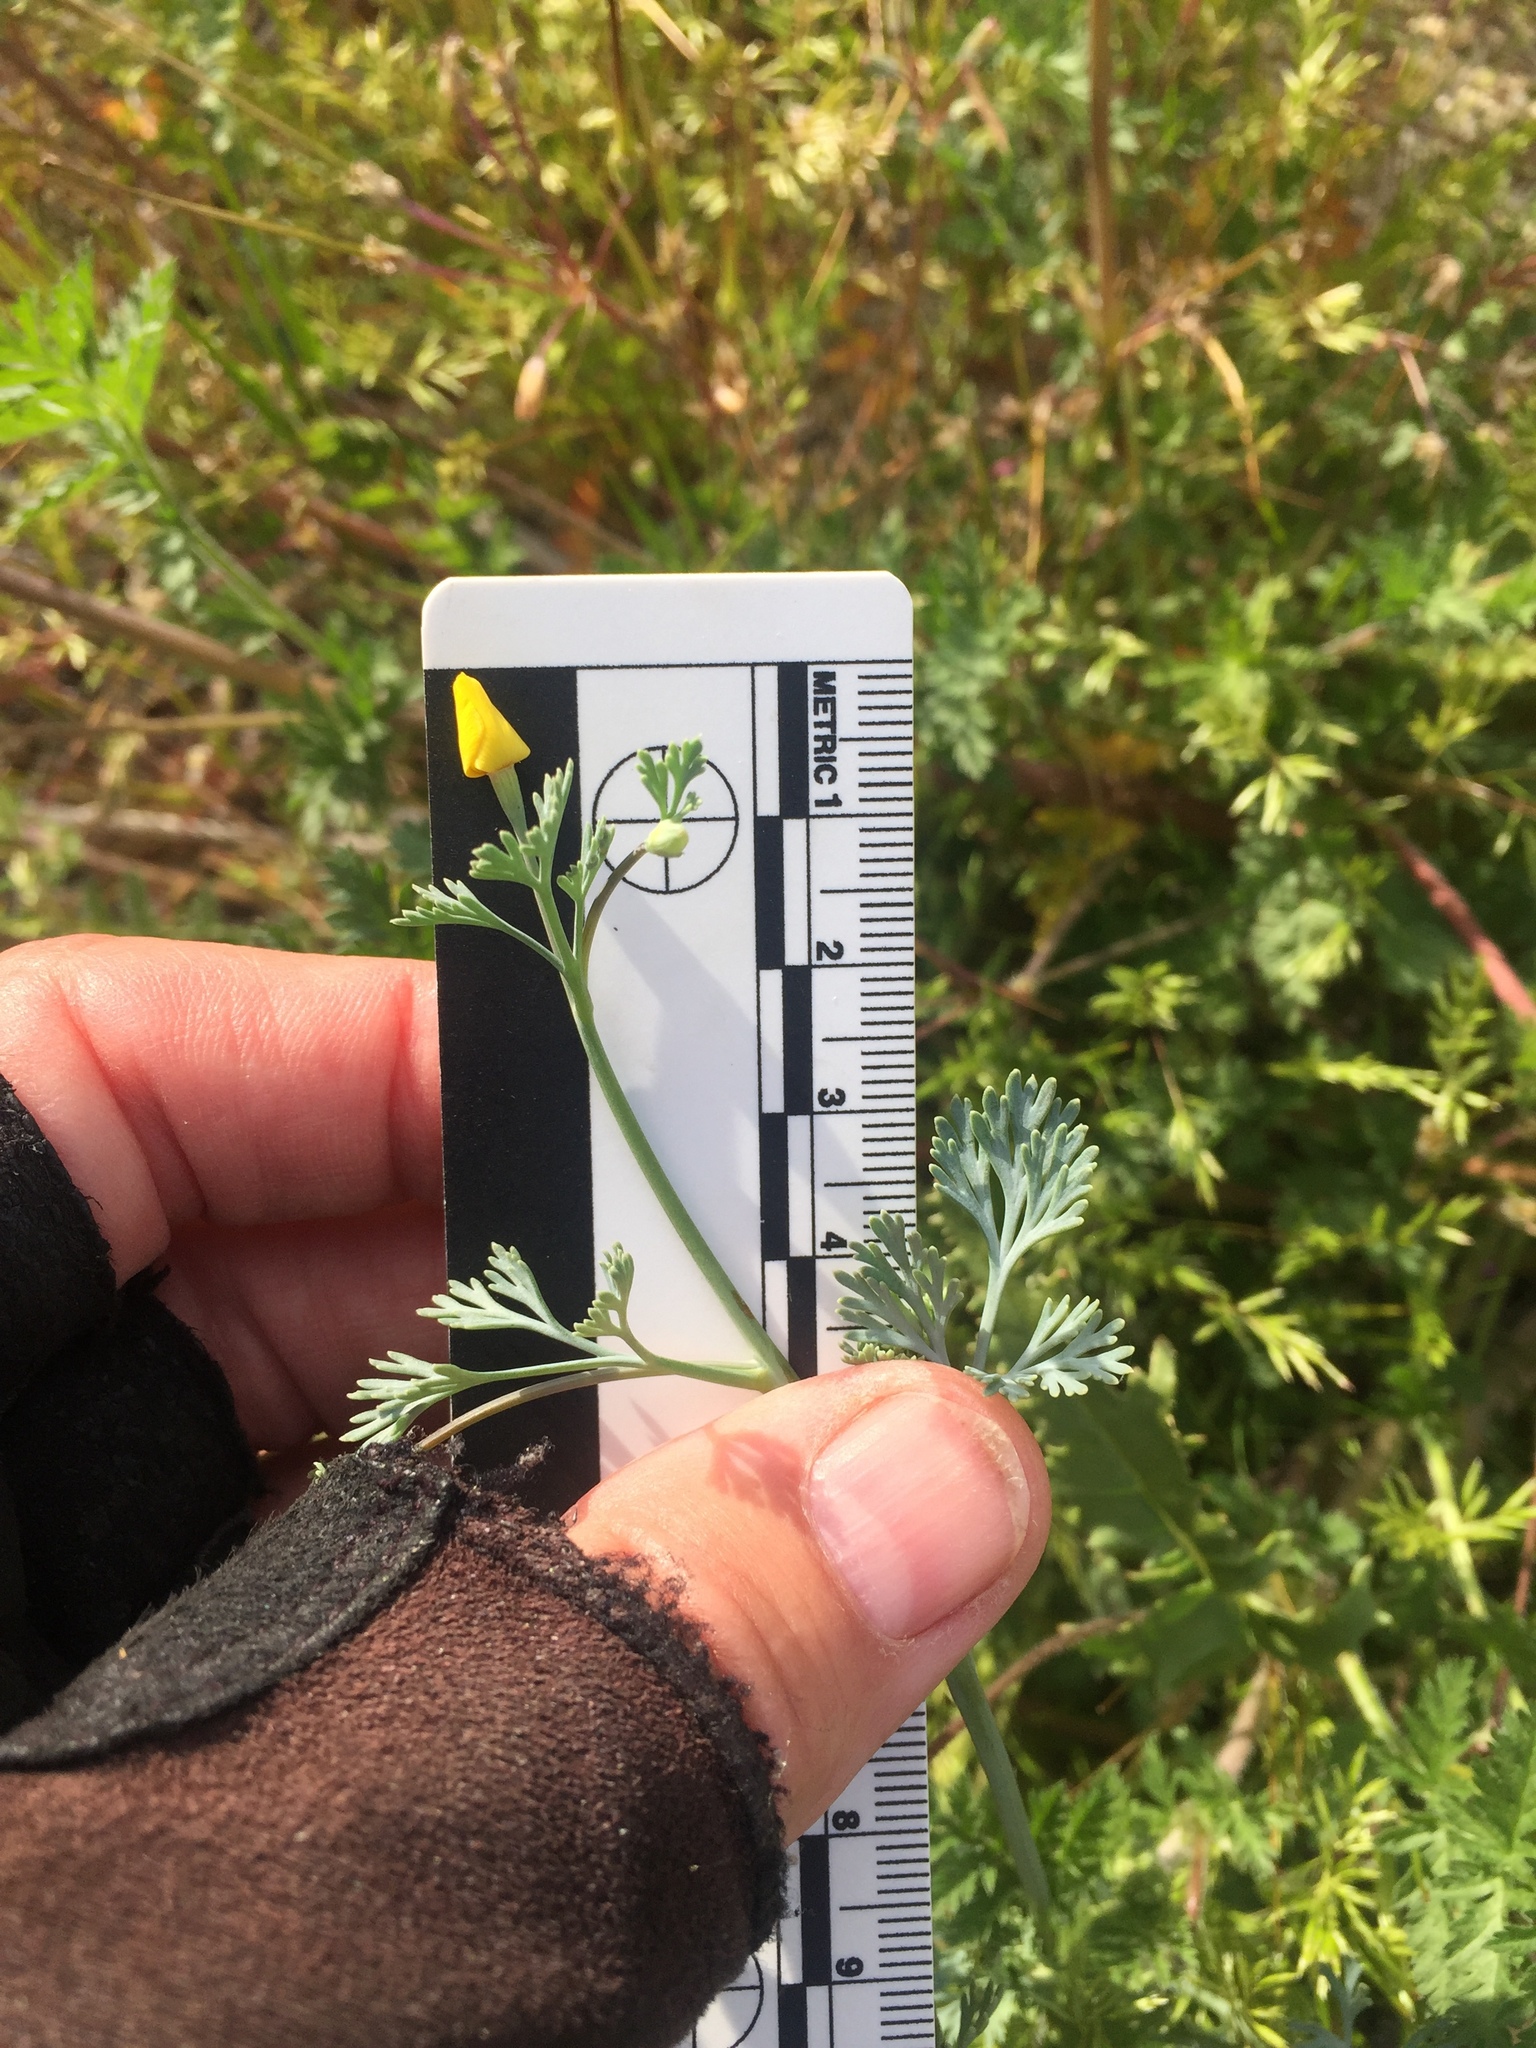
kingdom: Plantae
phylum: Tracheophyta
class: Magnoliopsida
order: Ranunculales
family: Papaveraceae
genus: Eschscholzia
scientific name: Eschscholzia minutiflora
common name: Small-flower california-poppy
